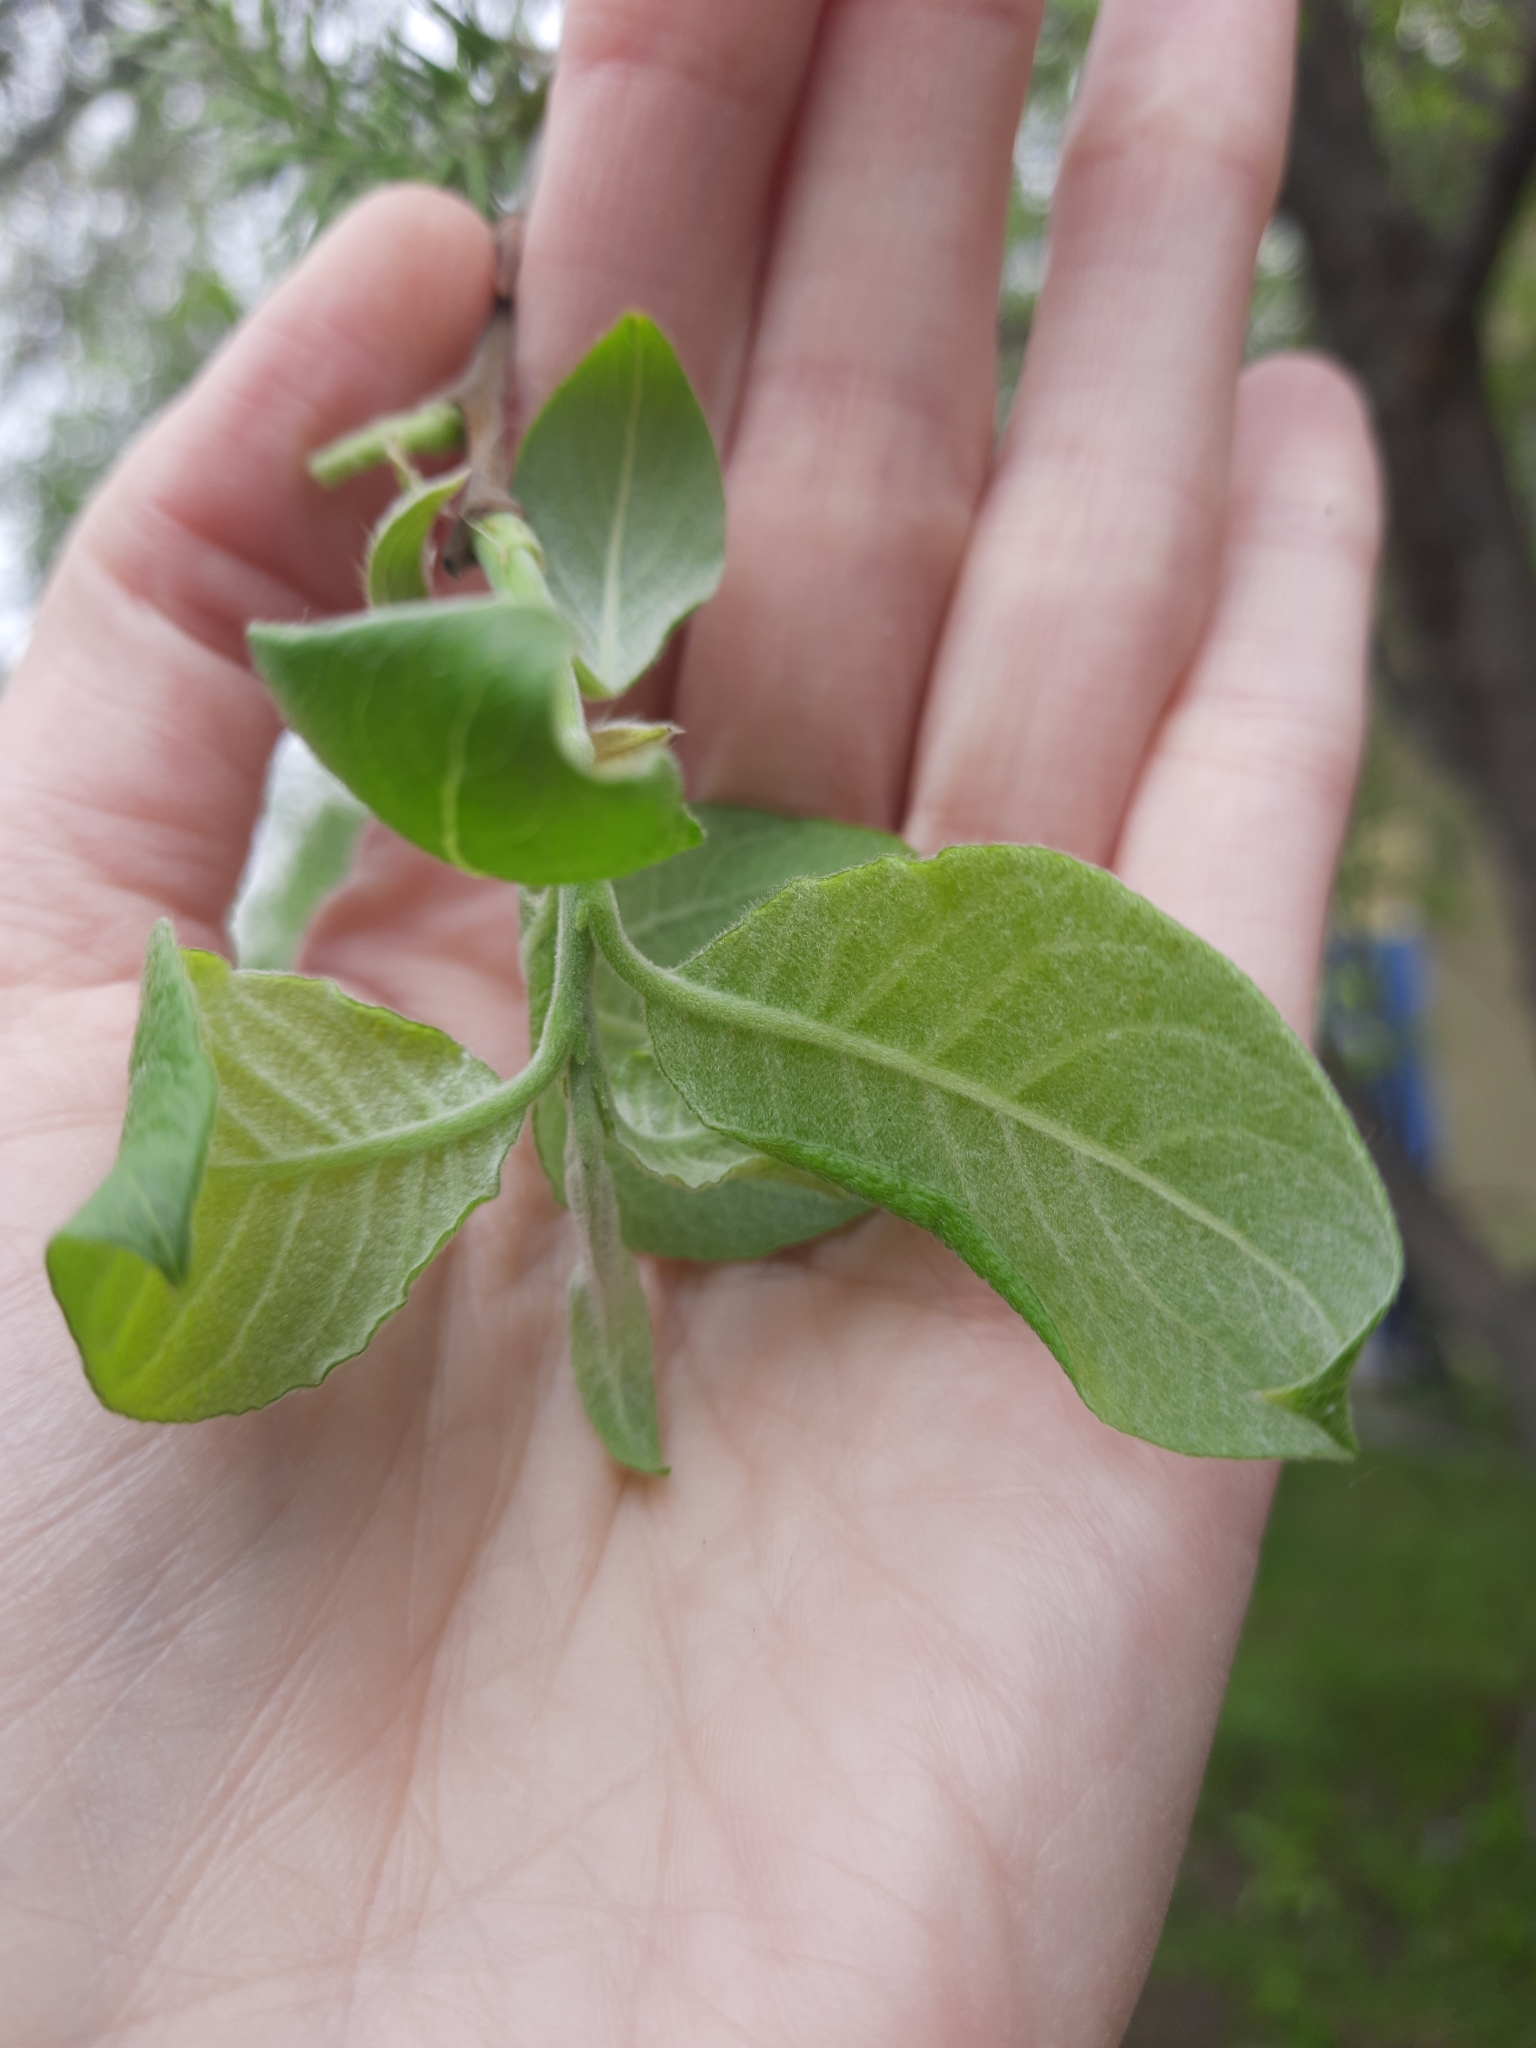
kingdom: Plantae
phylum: Tracheophyta
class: Magnoliopsida
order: Malpighiales
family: Salicaceae
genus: Salix
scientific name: Salix caprea
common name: Goat willow
